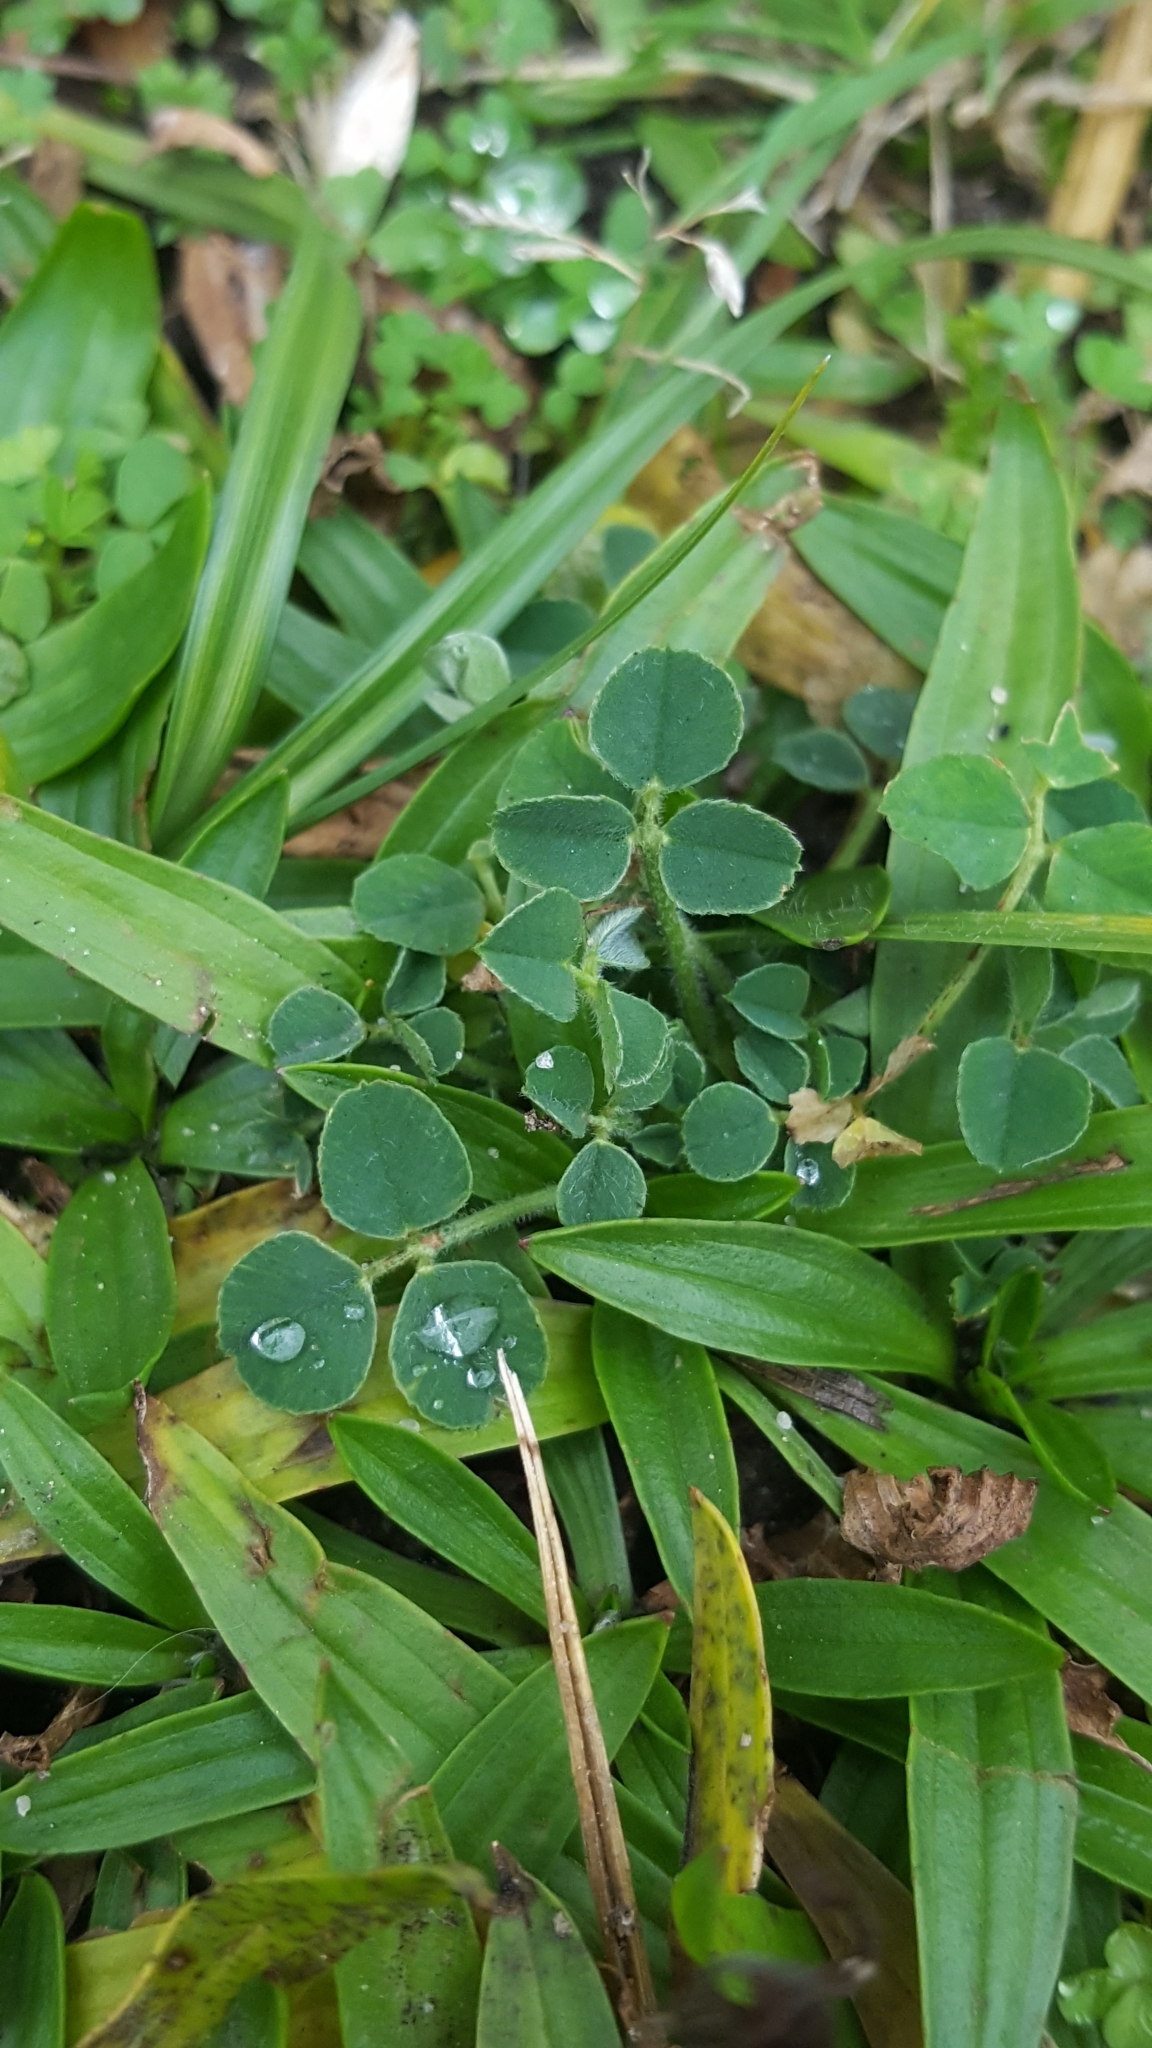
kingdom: Plantae
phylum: Tracheophyta
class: Magnoliopsida
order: Fabales
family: Fabaceae
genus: Medicago
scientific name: Medicago lupulina
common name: Black medick
